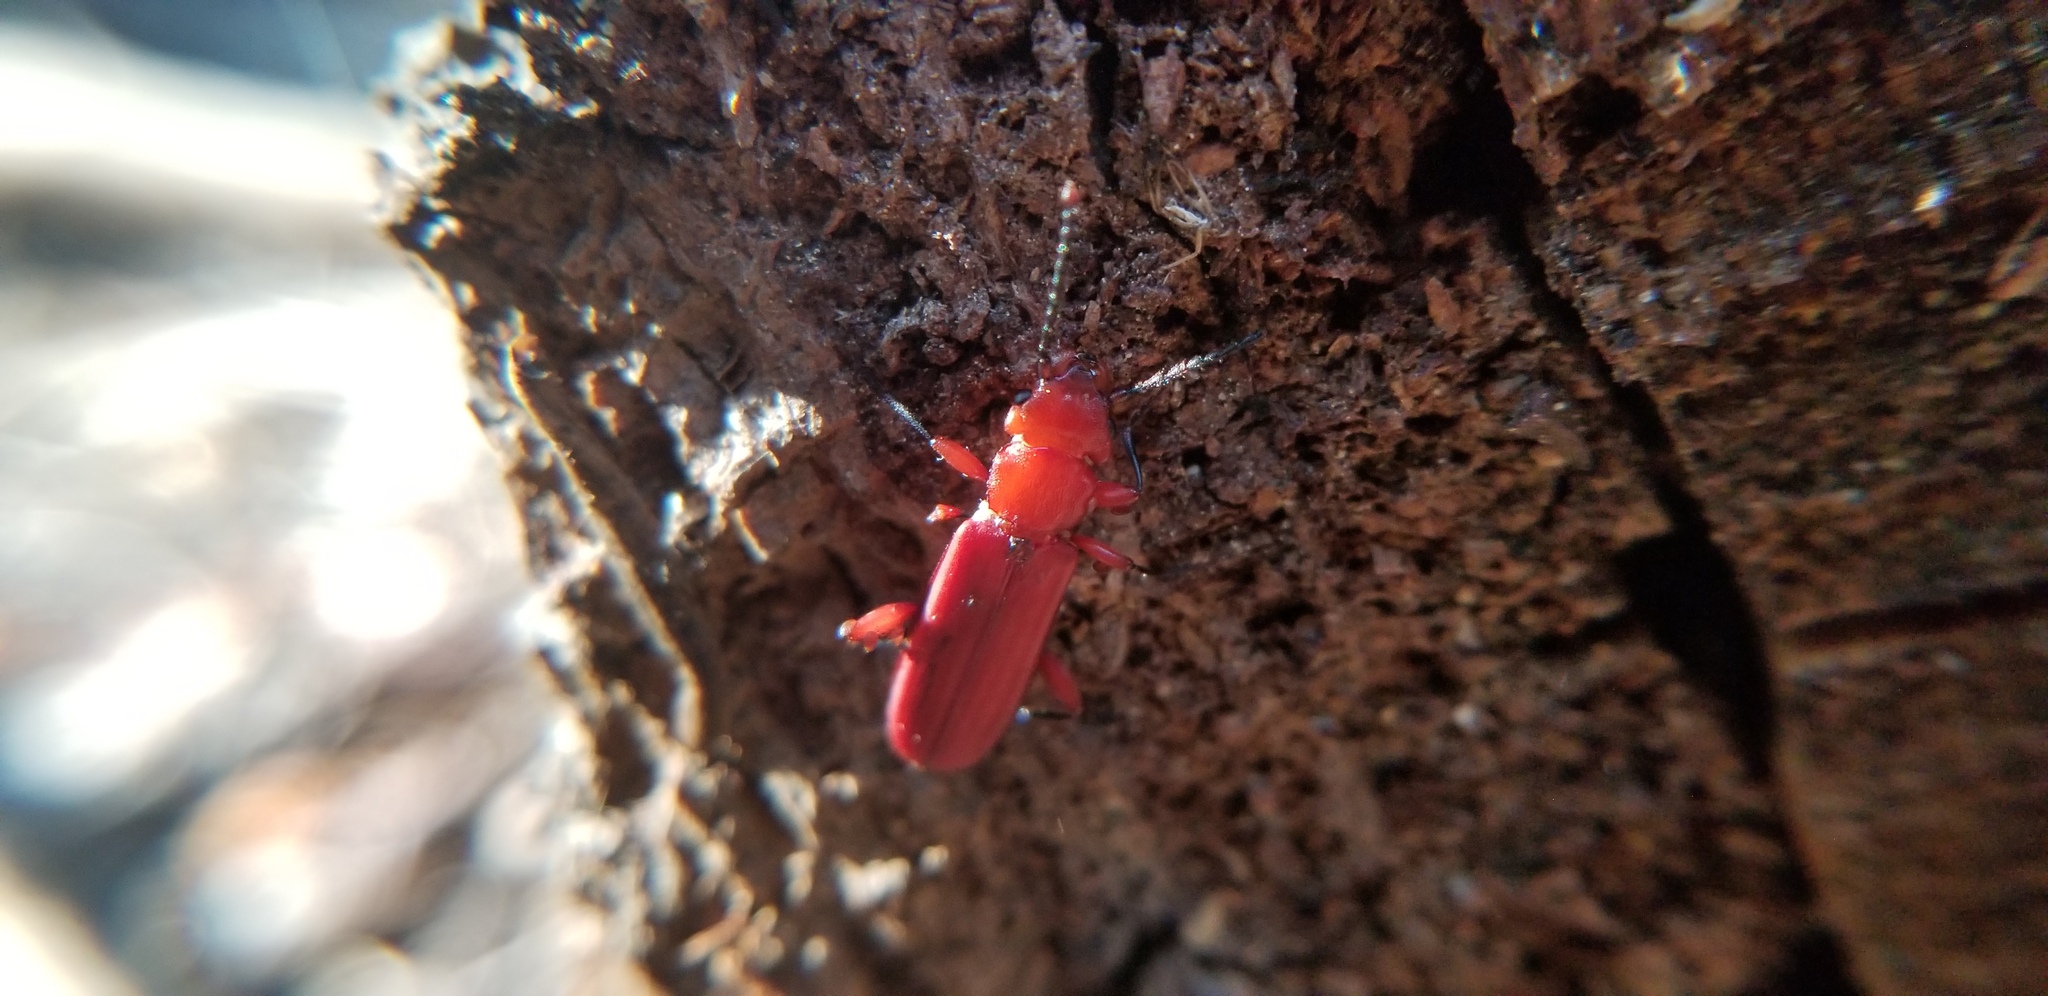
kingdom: Animalia
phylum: Arthropoda
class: Insecta
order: Coleoptera
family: Cucujidae
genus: Cucujus
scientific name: Cucujus clavipes
